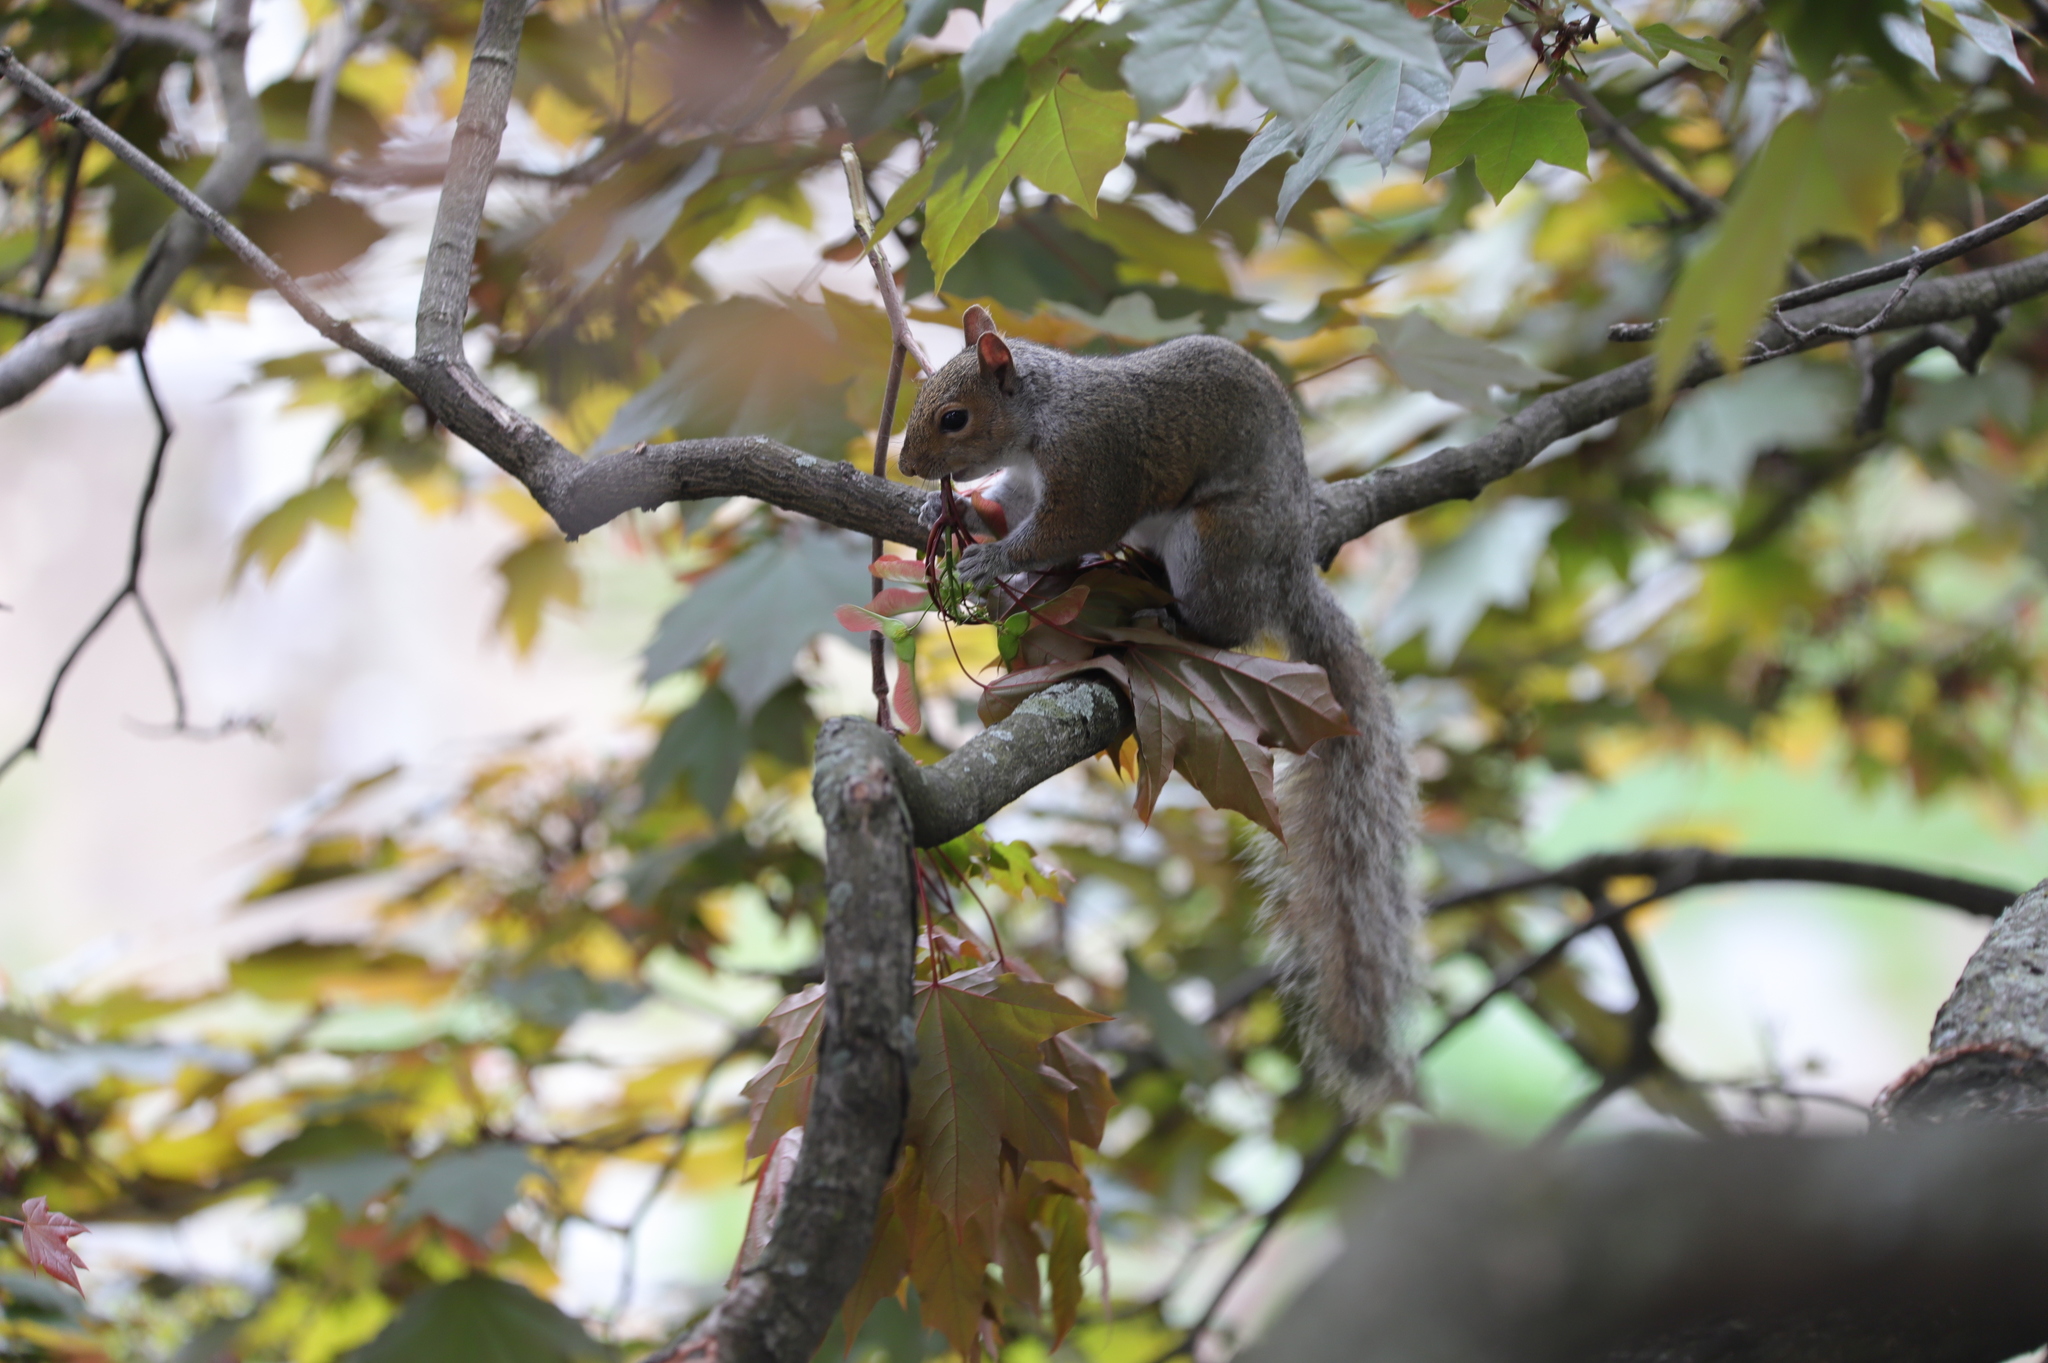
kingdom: Animalia
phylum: Chordata
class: Mammalia
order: Rodentia
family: Sciuridae
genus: Sciurus
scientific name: Sciurus carolinensis
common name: Eastern gray squirrel
